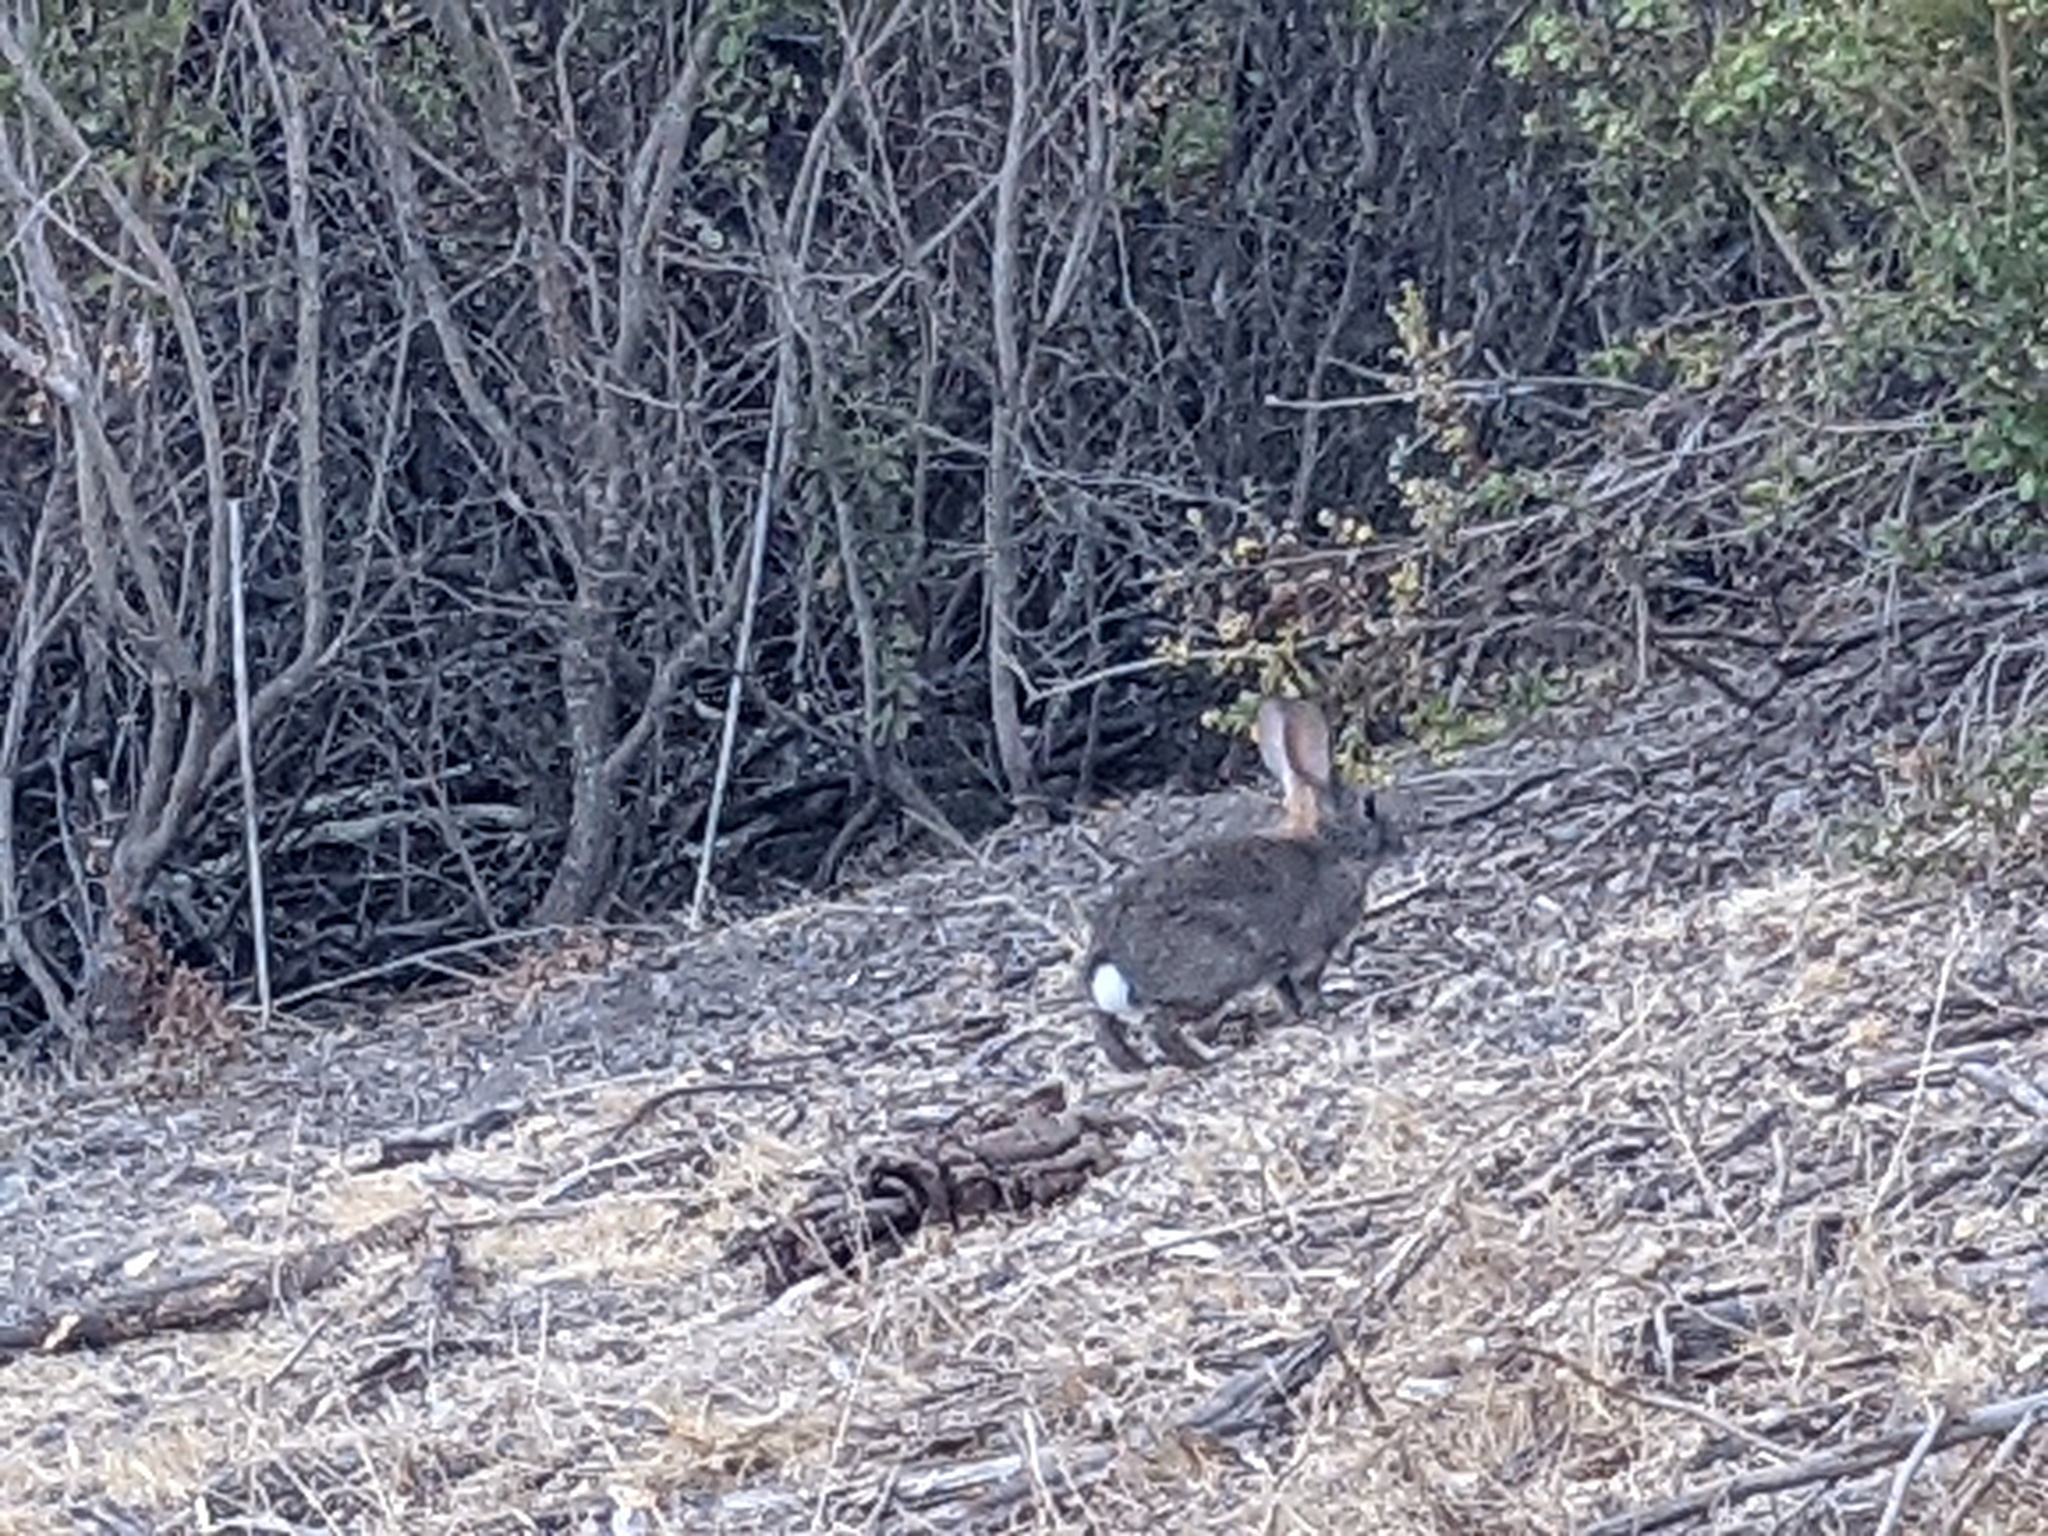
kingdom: Animalia
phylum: Chordata
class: Mammalia
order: Lagomorpha
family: Leporidae
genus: Sylvilagus
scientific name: Sylvilagus bachmani
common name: Brush rabbit
